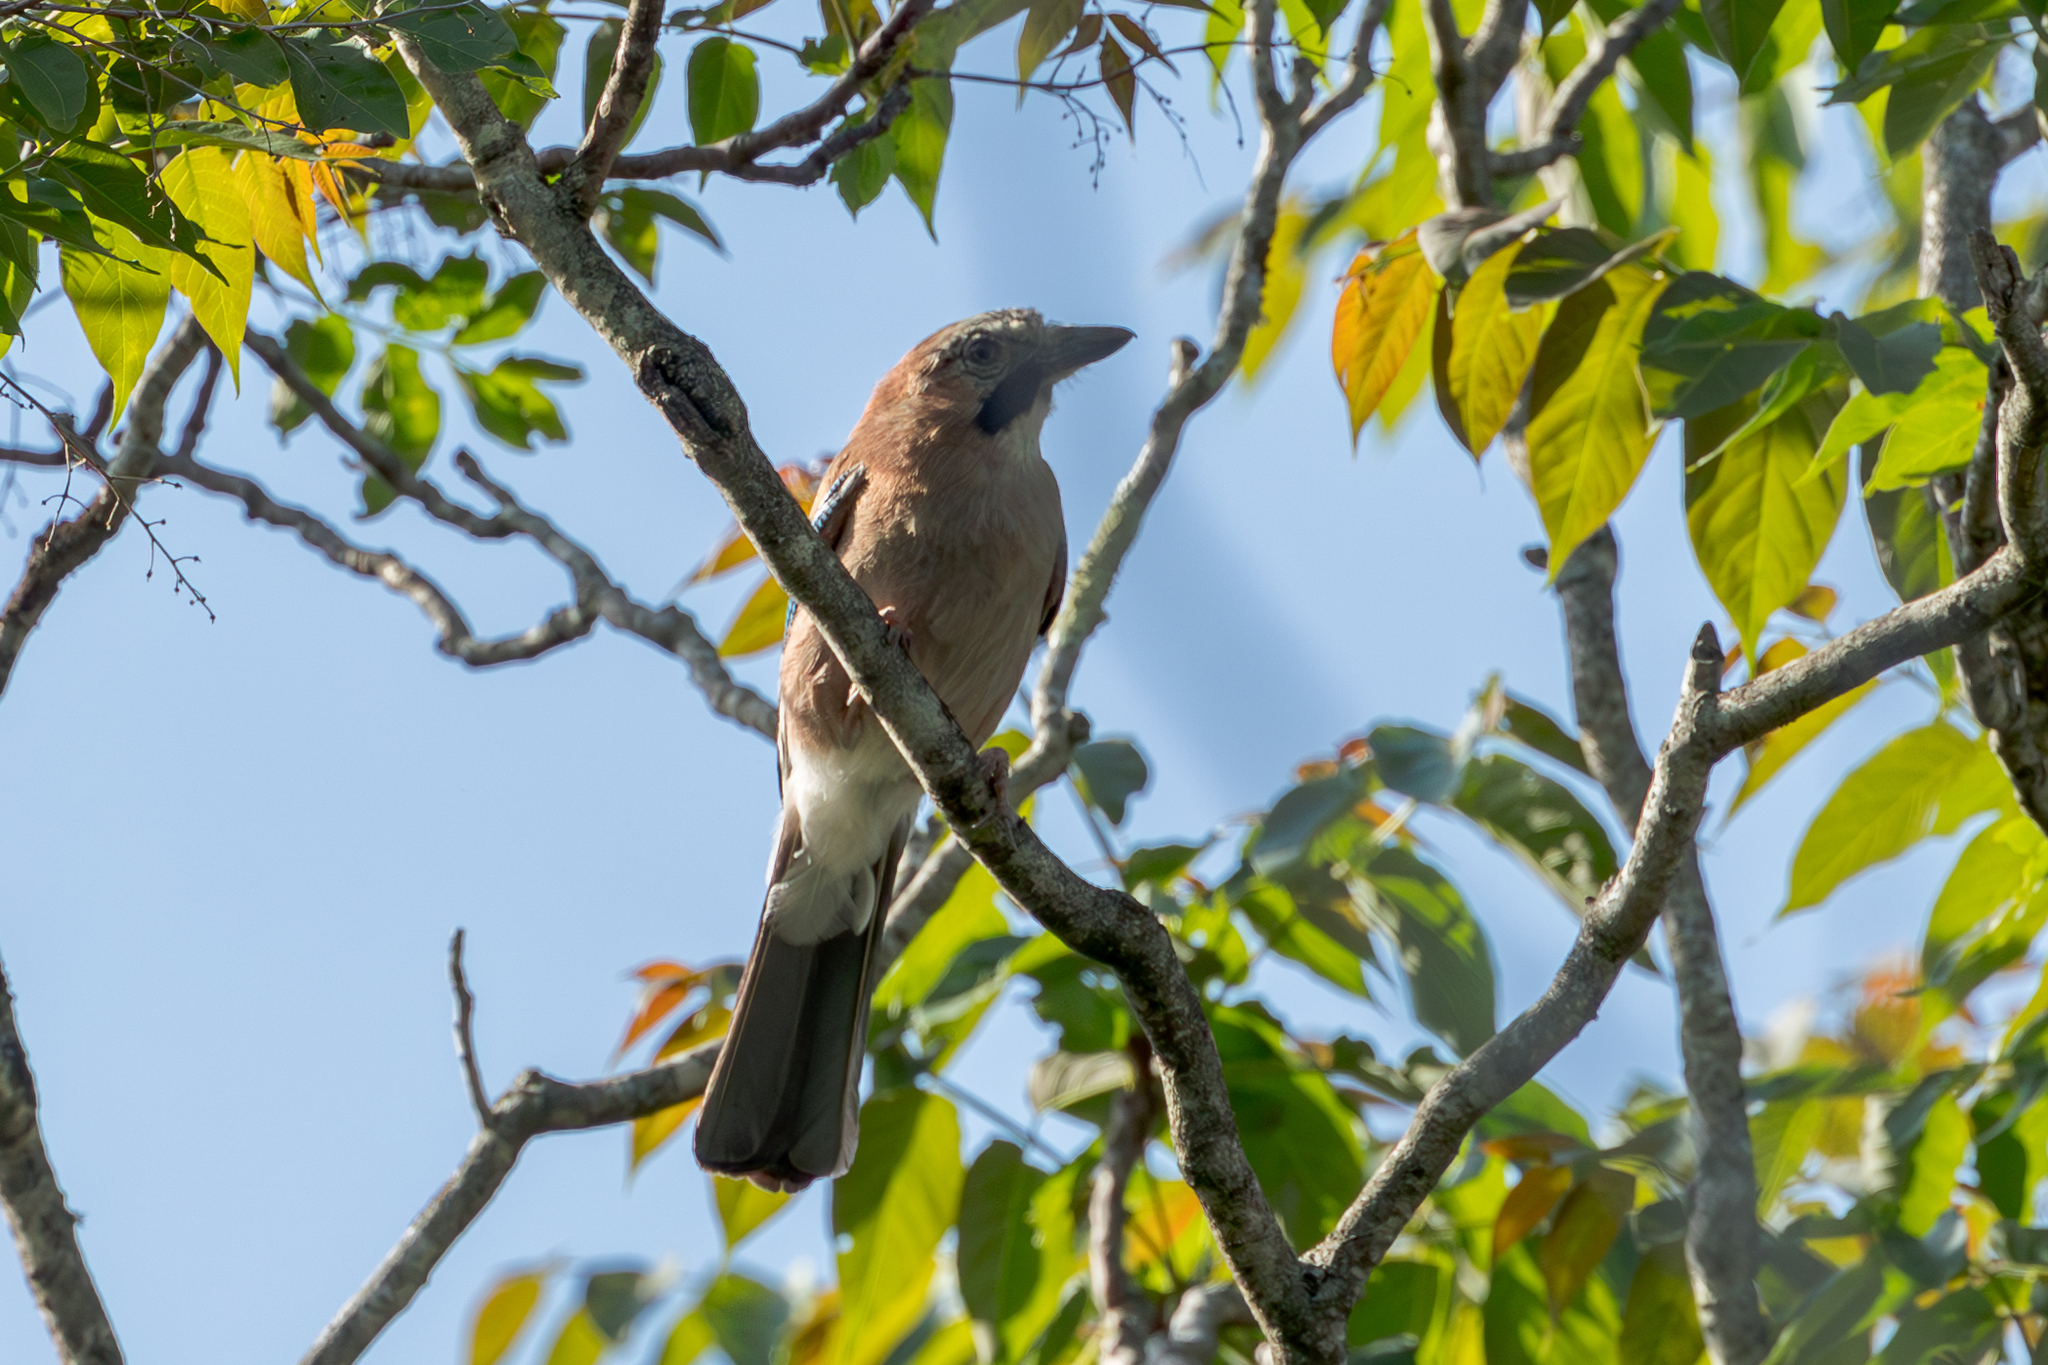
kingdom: Animalia
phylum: Chordata
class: Aves
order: Passeriformes
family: Corvidae
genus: Garrulus
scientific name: Garrulus glandarius
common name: Eurasian jay
